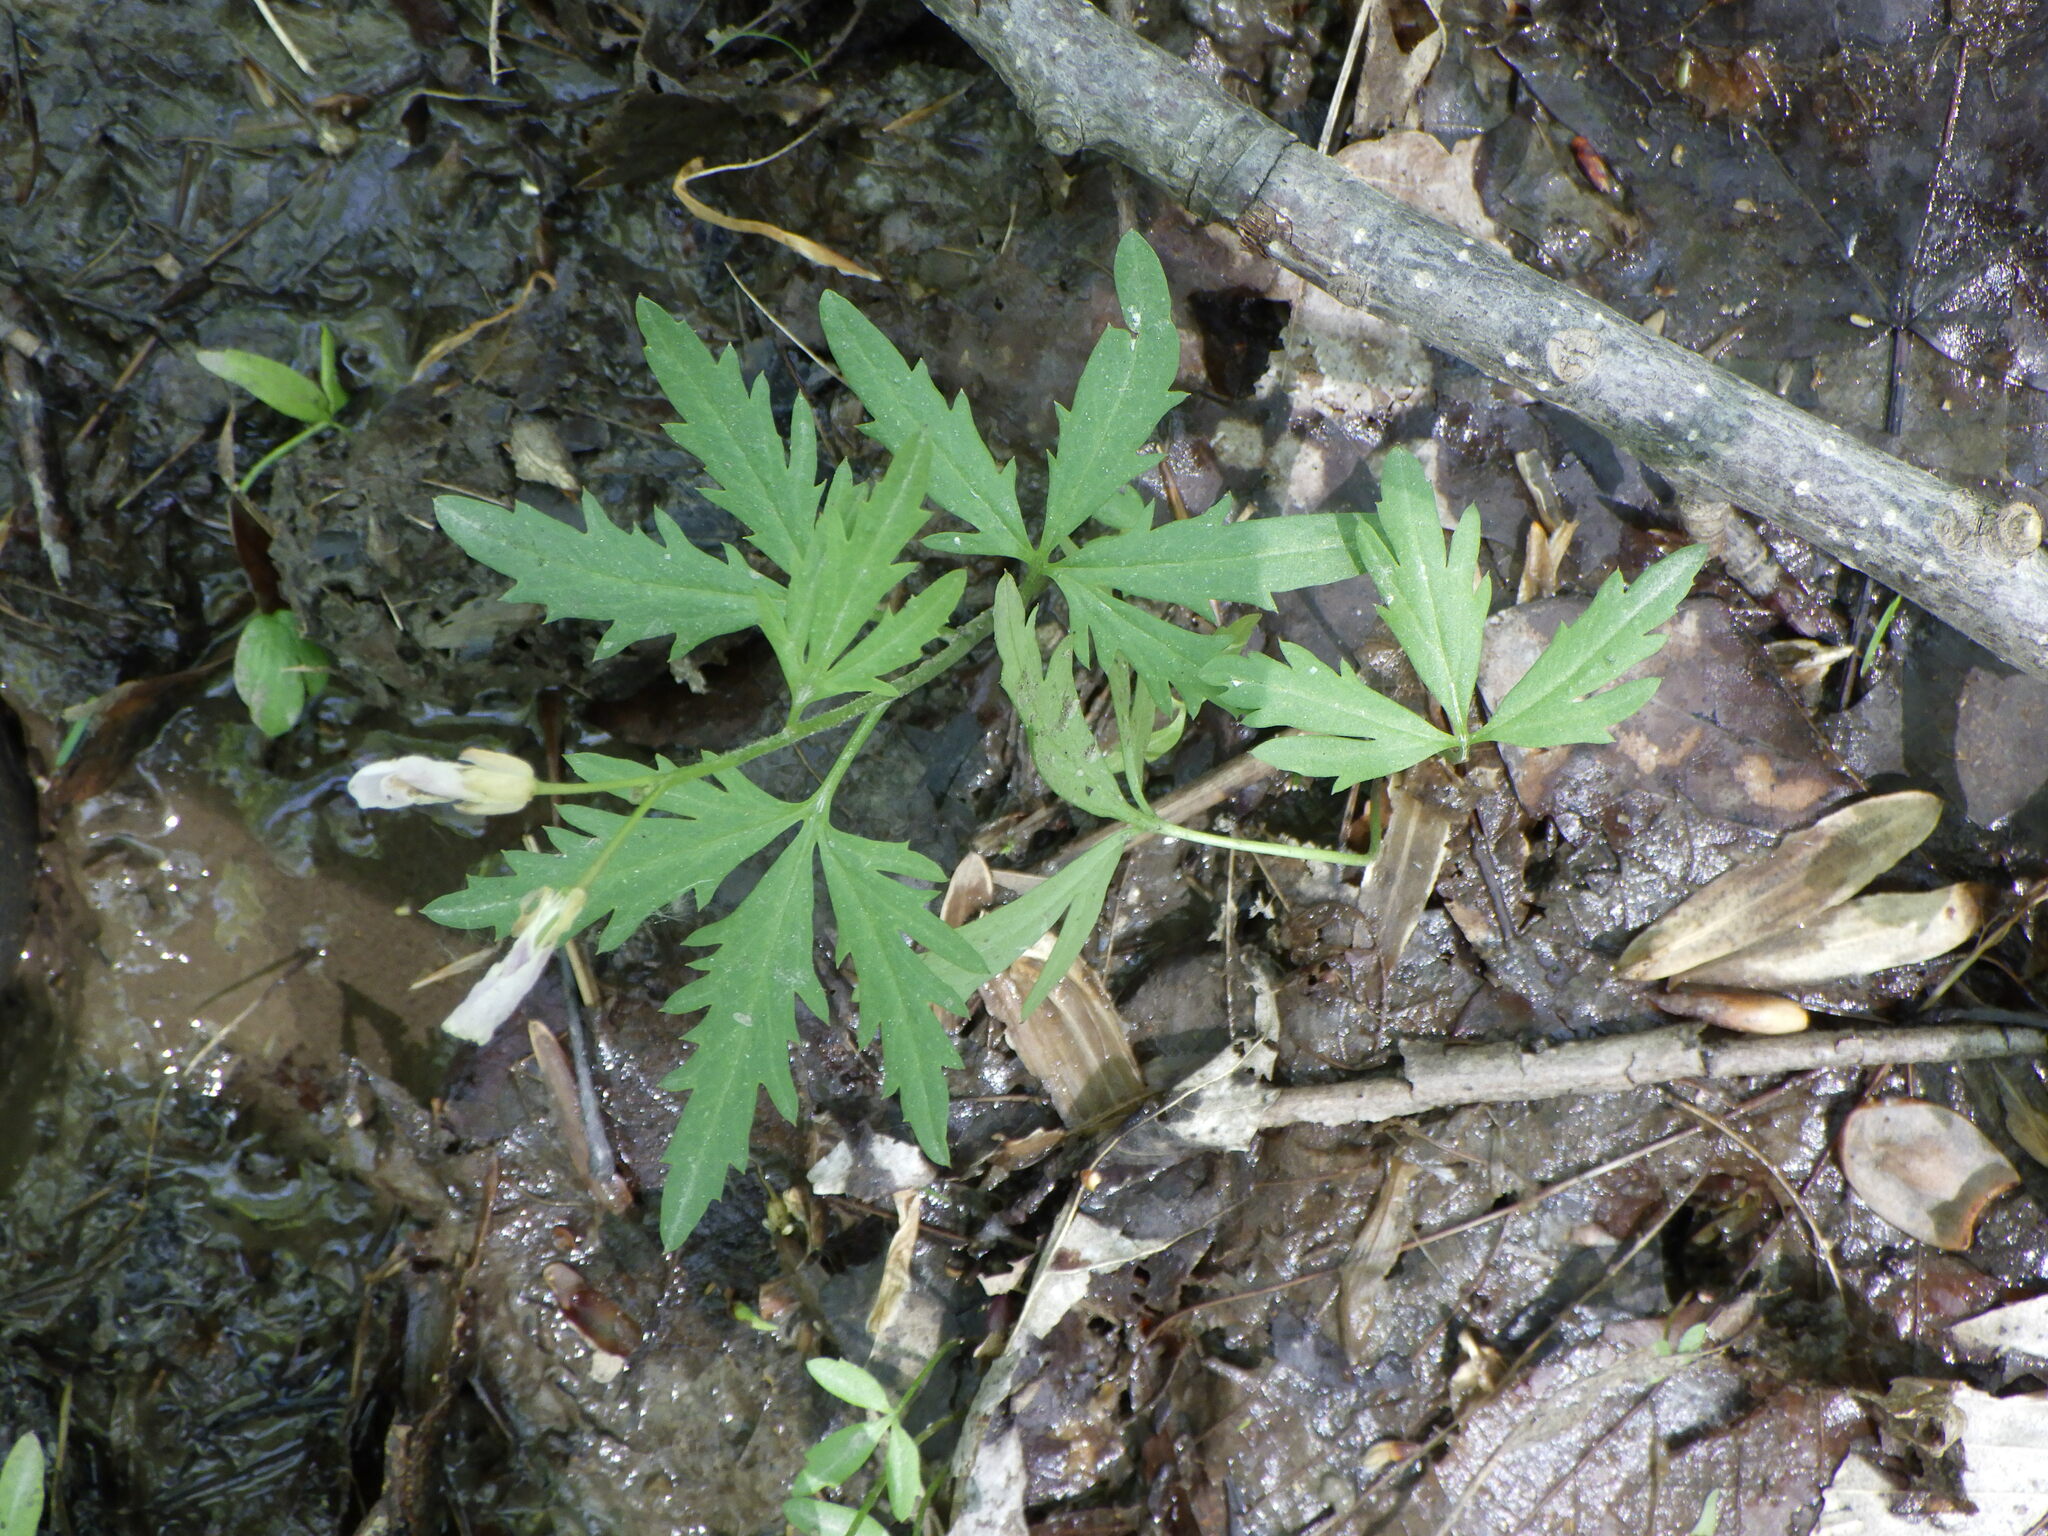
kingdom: Plantae
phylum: Tracheophyta
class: Magnoliopsida
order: Brassicales
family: Brassicaceae
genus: Cardamine
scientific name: Cardamine concatenata
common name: Cut-leaf toothcup
